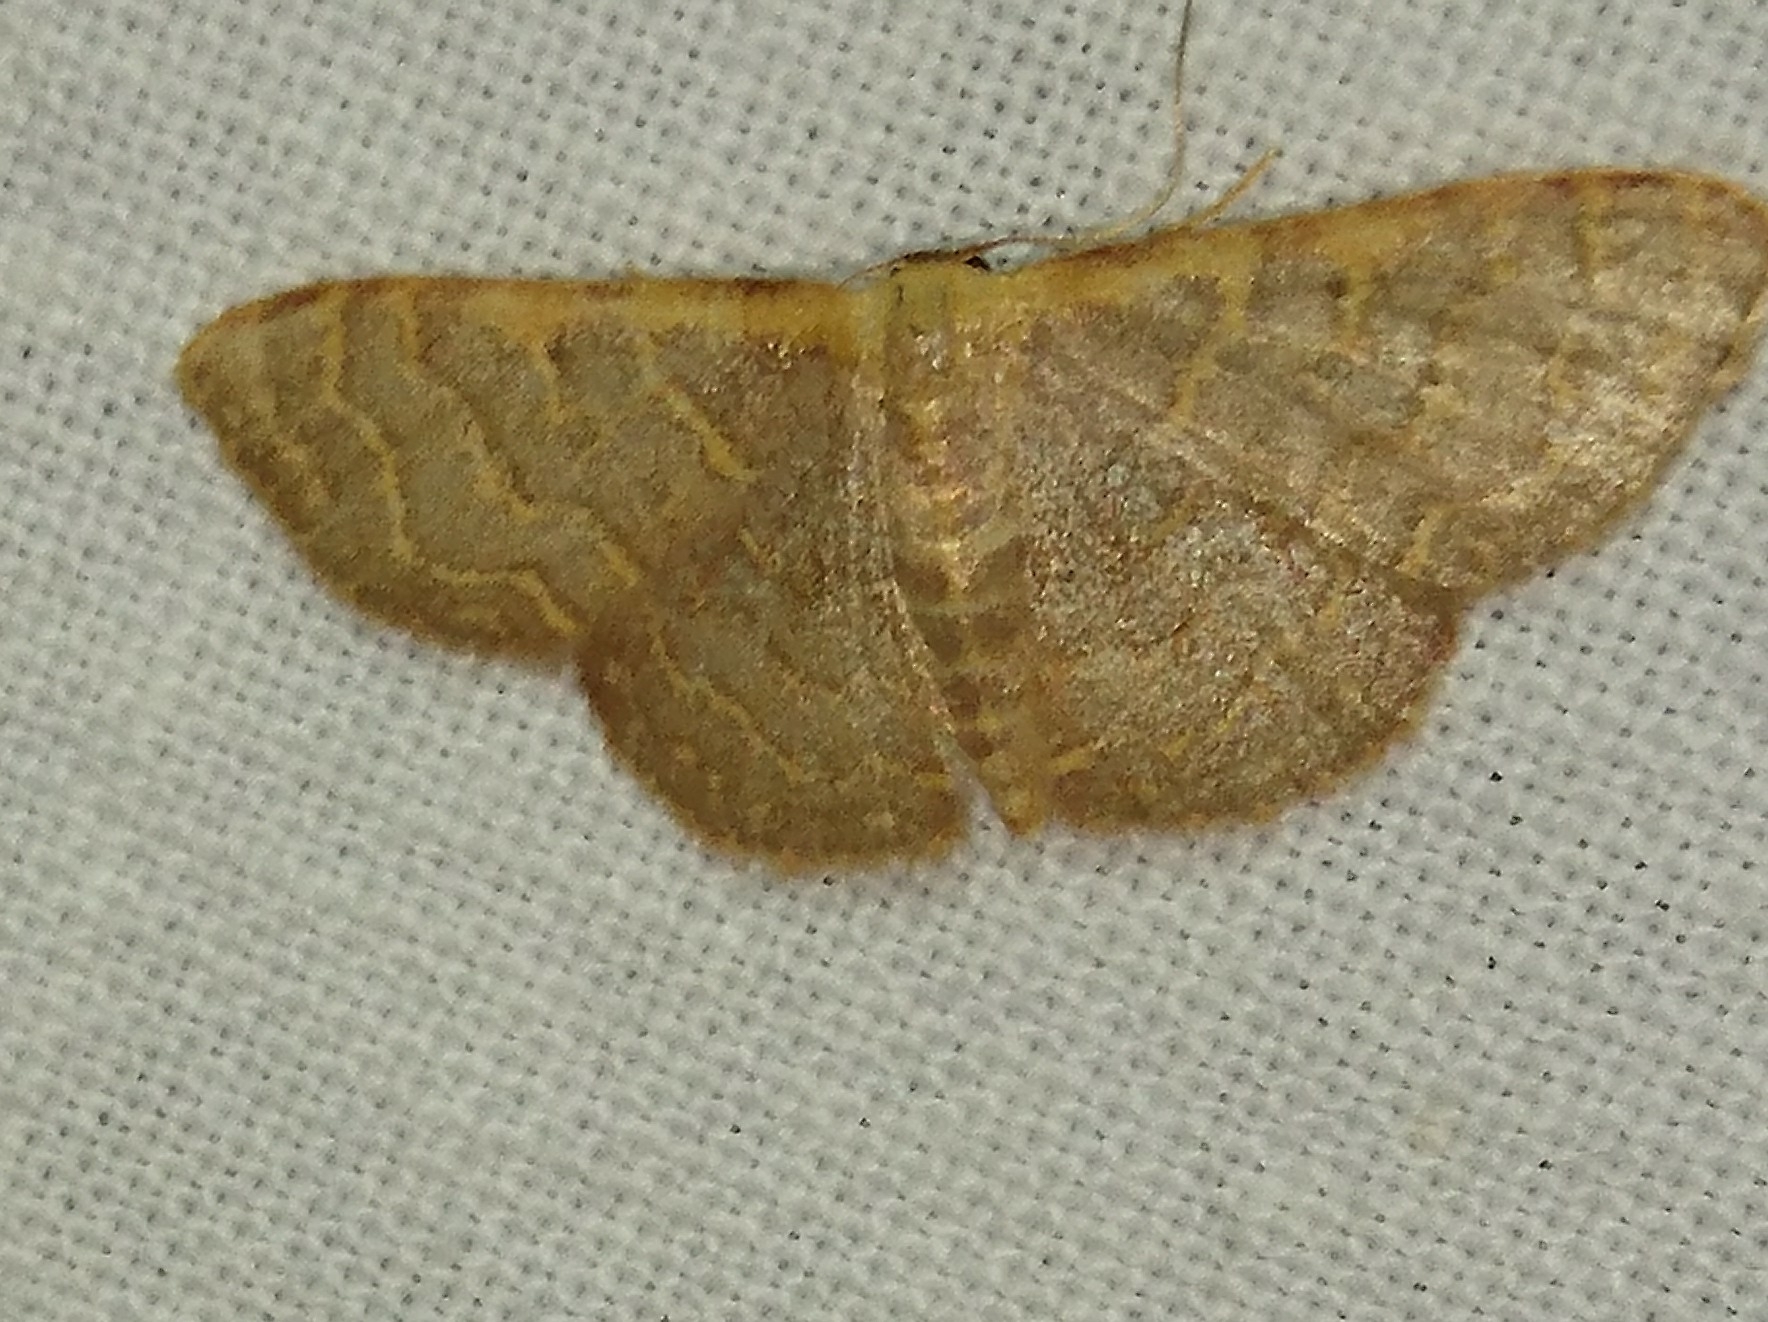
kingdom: Animalia
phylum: Arthropoda
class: Insecta
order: Lepidoptera
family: Geometridae
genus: Leptostales
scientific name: Leptostales pannaria
